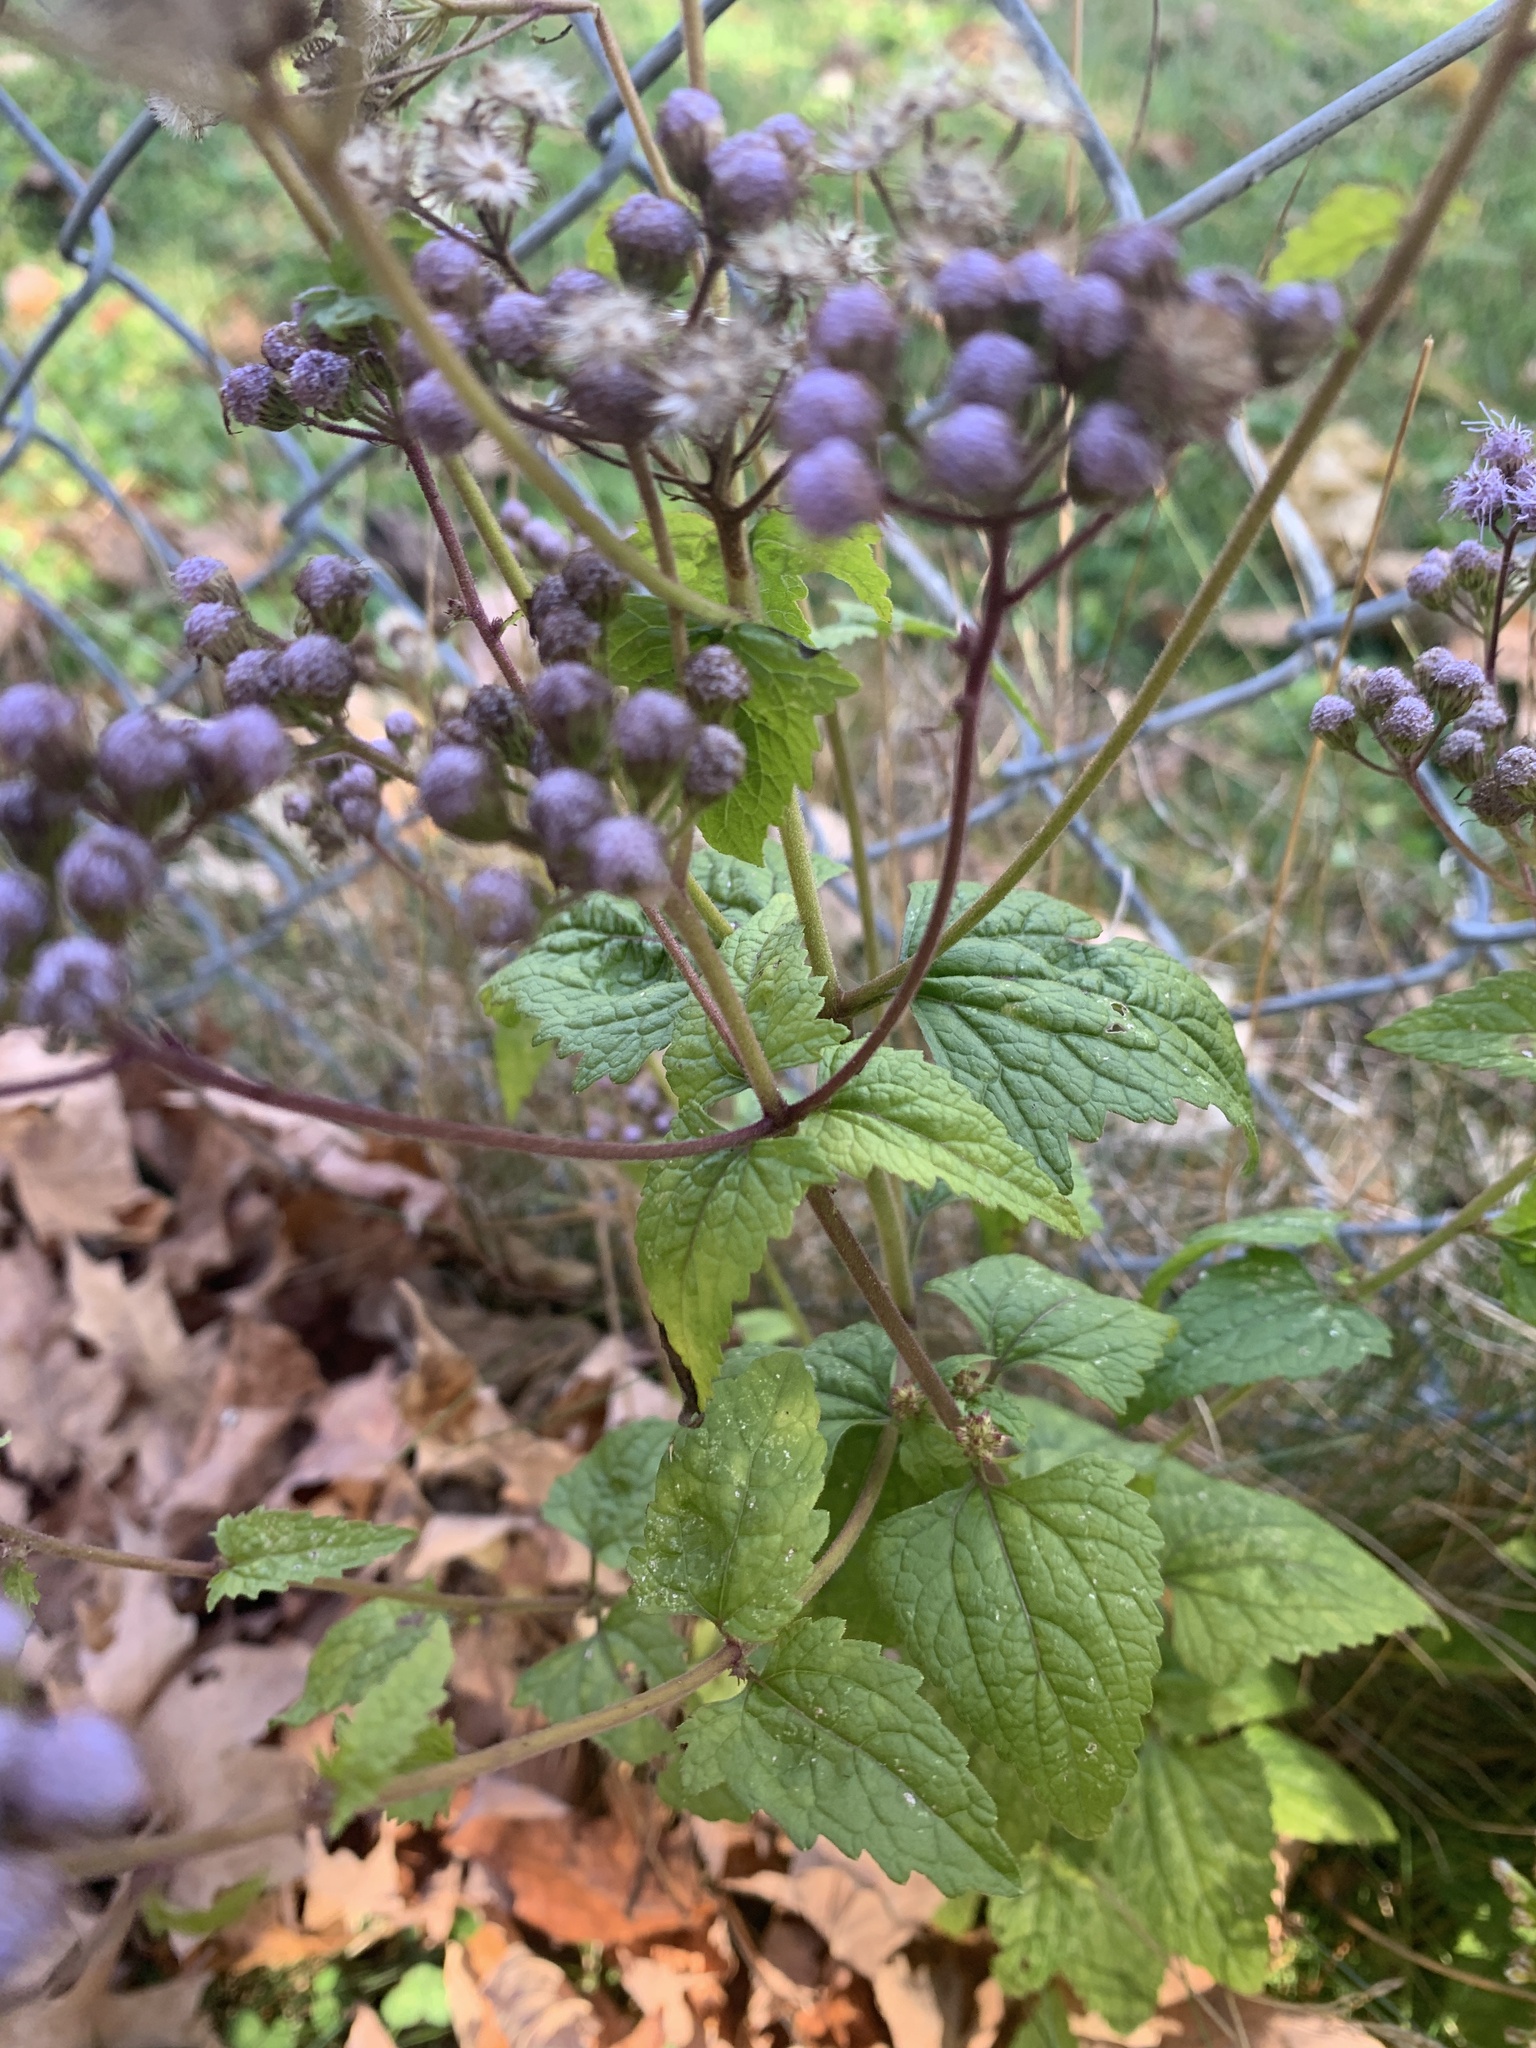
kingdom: Plantae
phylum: Tracheophyta
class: Magnoliopsida
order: Asterales
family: Asteraceae
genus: Conoclinium
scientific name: Conoclinium coelestinum
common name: Blue mistflower
